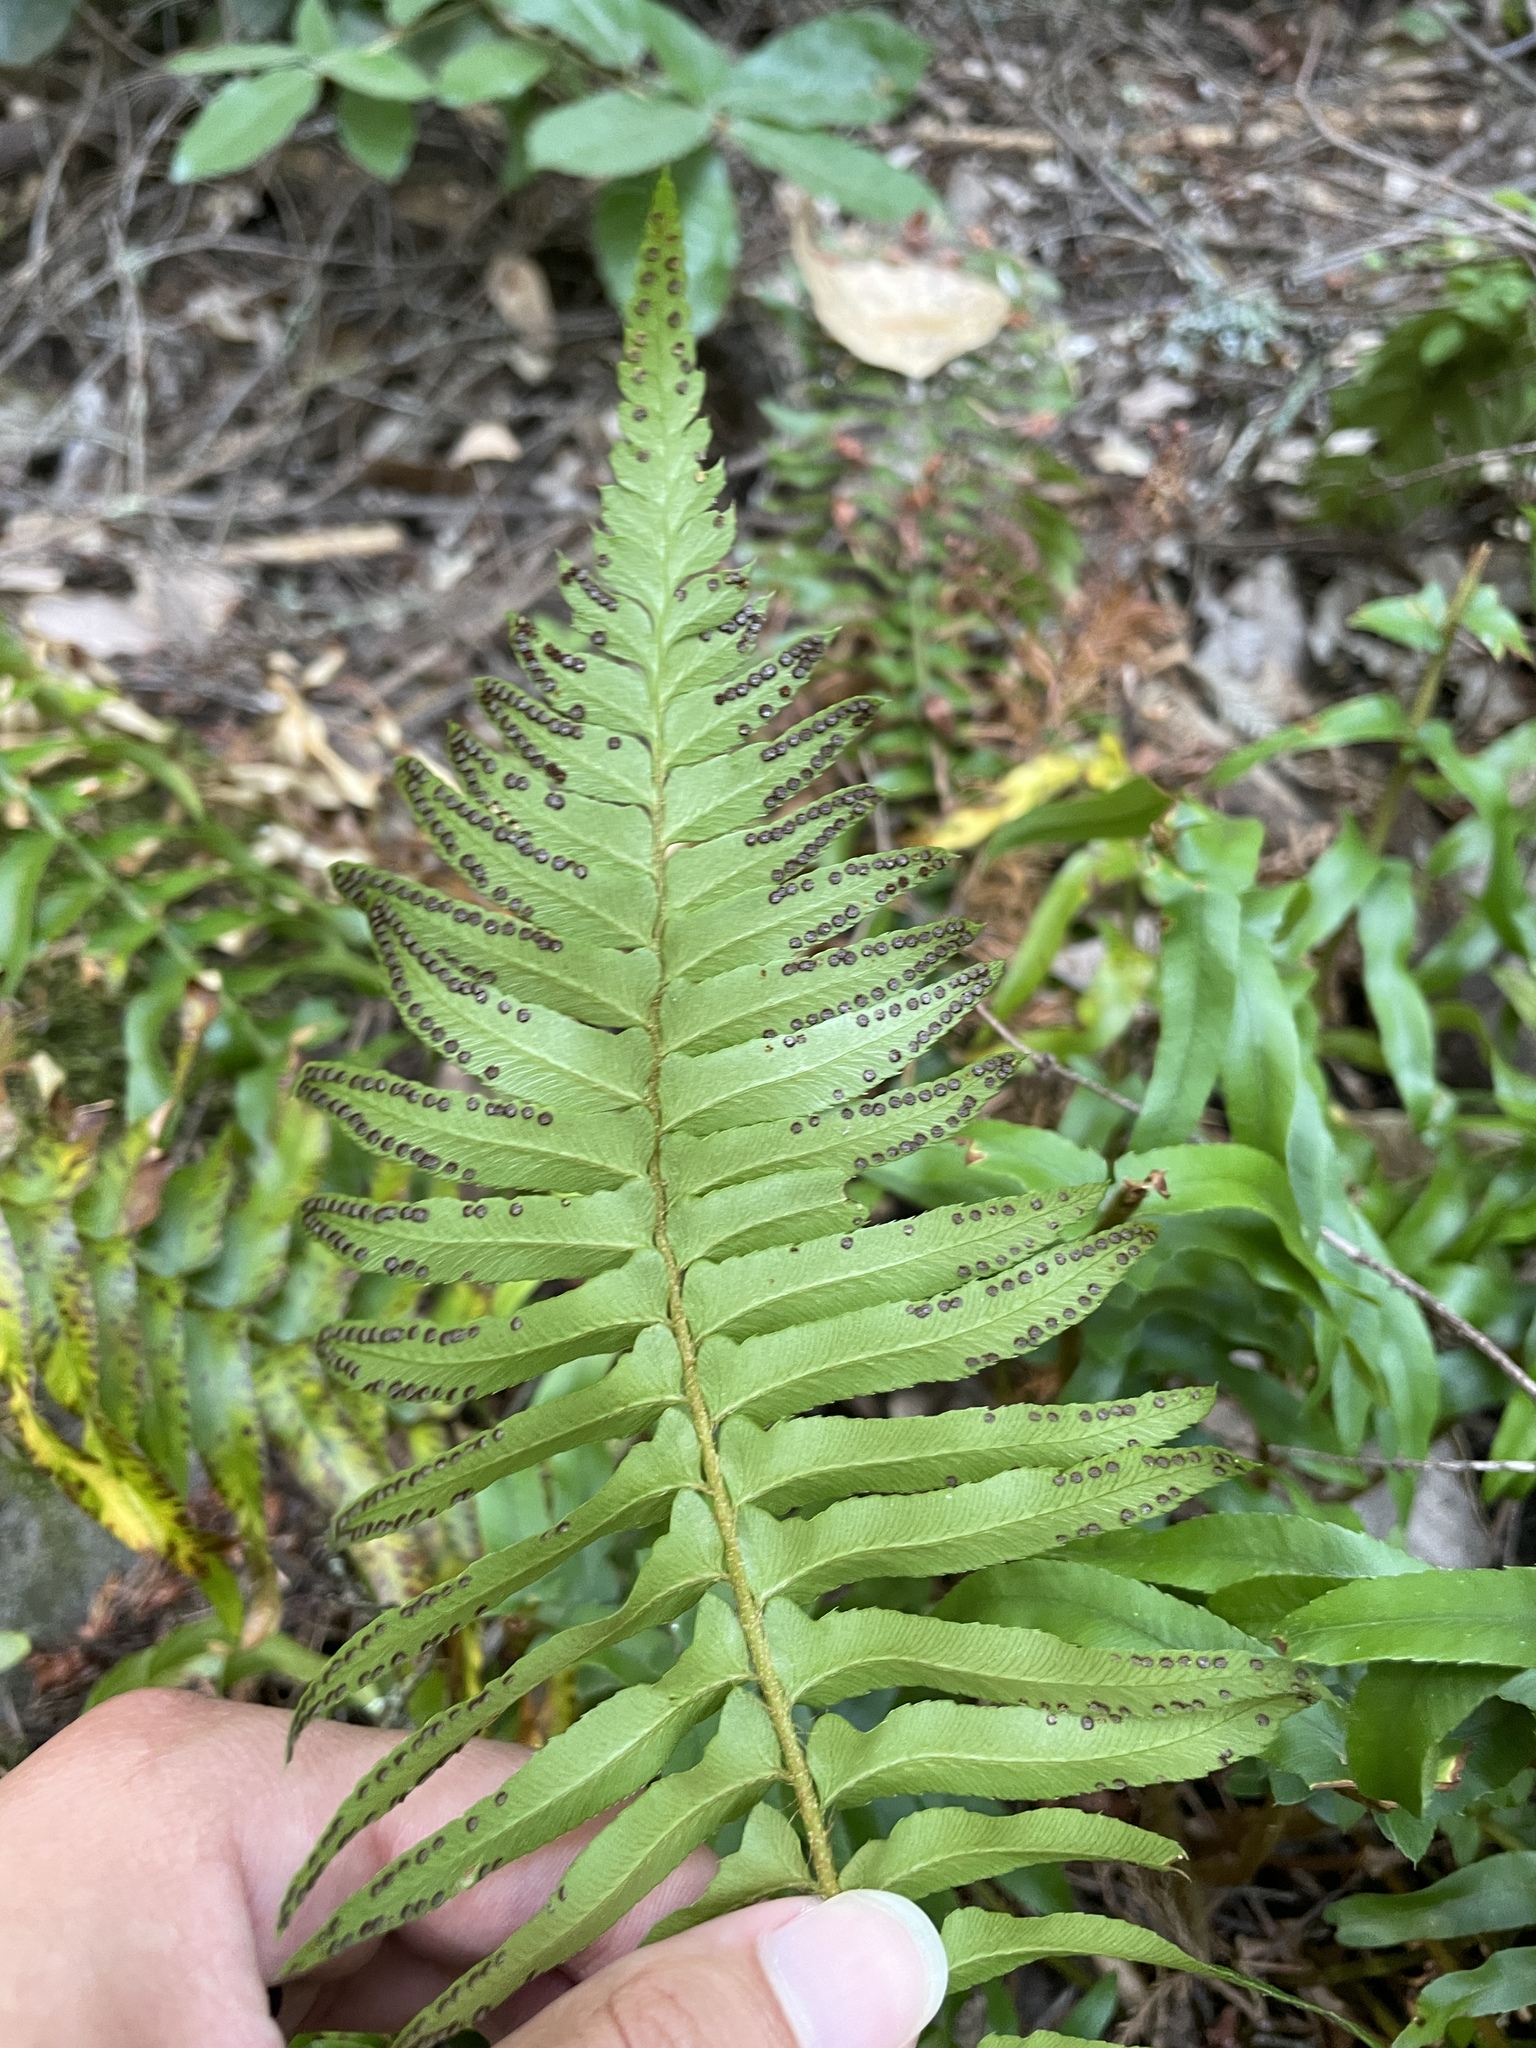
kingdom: Plantae
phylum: Tracheophyta
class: Polypodiopsida
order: Polypodiales
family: Dryopteridaceae
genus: Polystichum
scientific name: Polystichum munitum
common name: Western sword-fern
